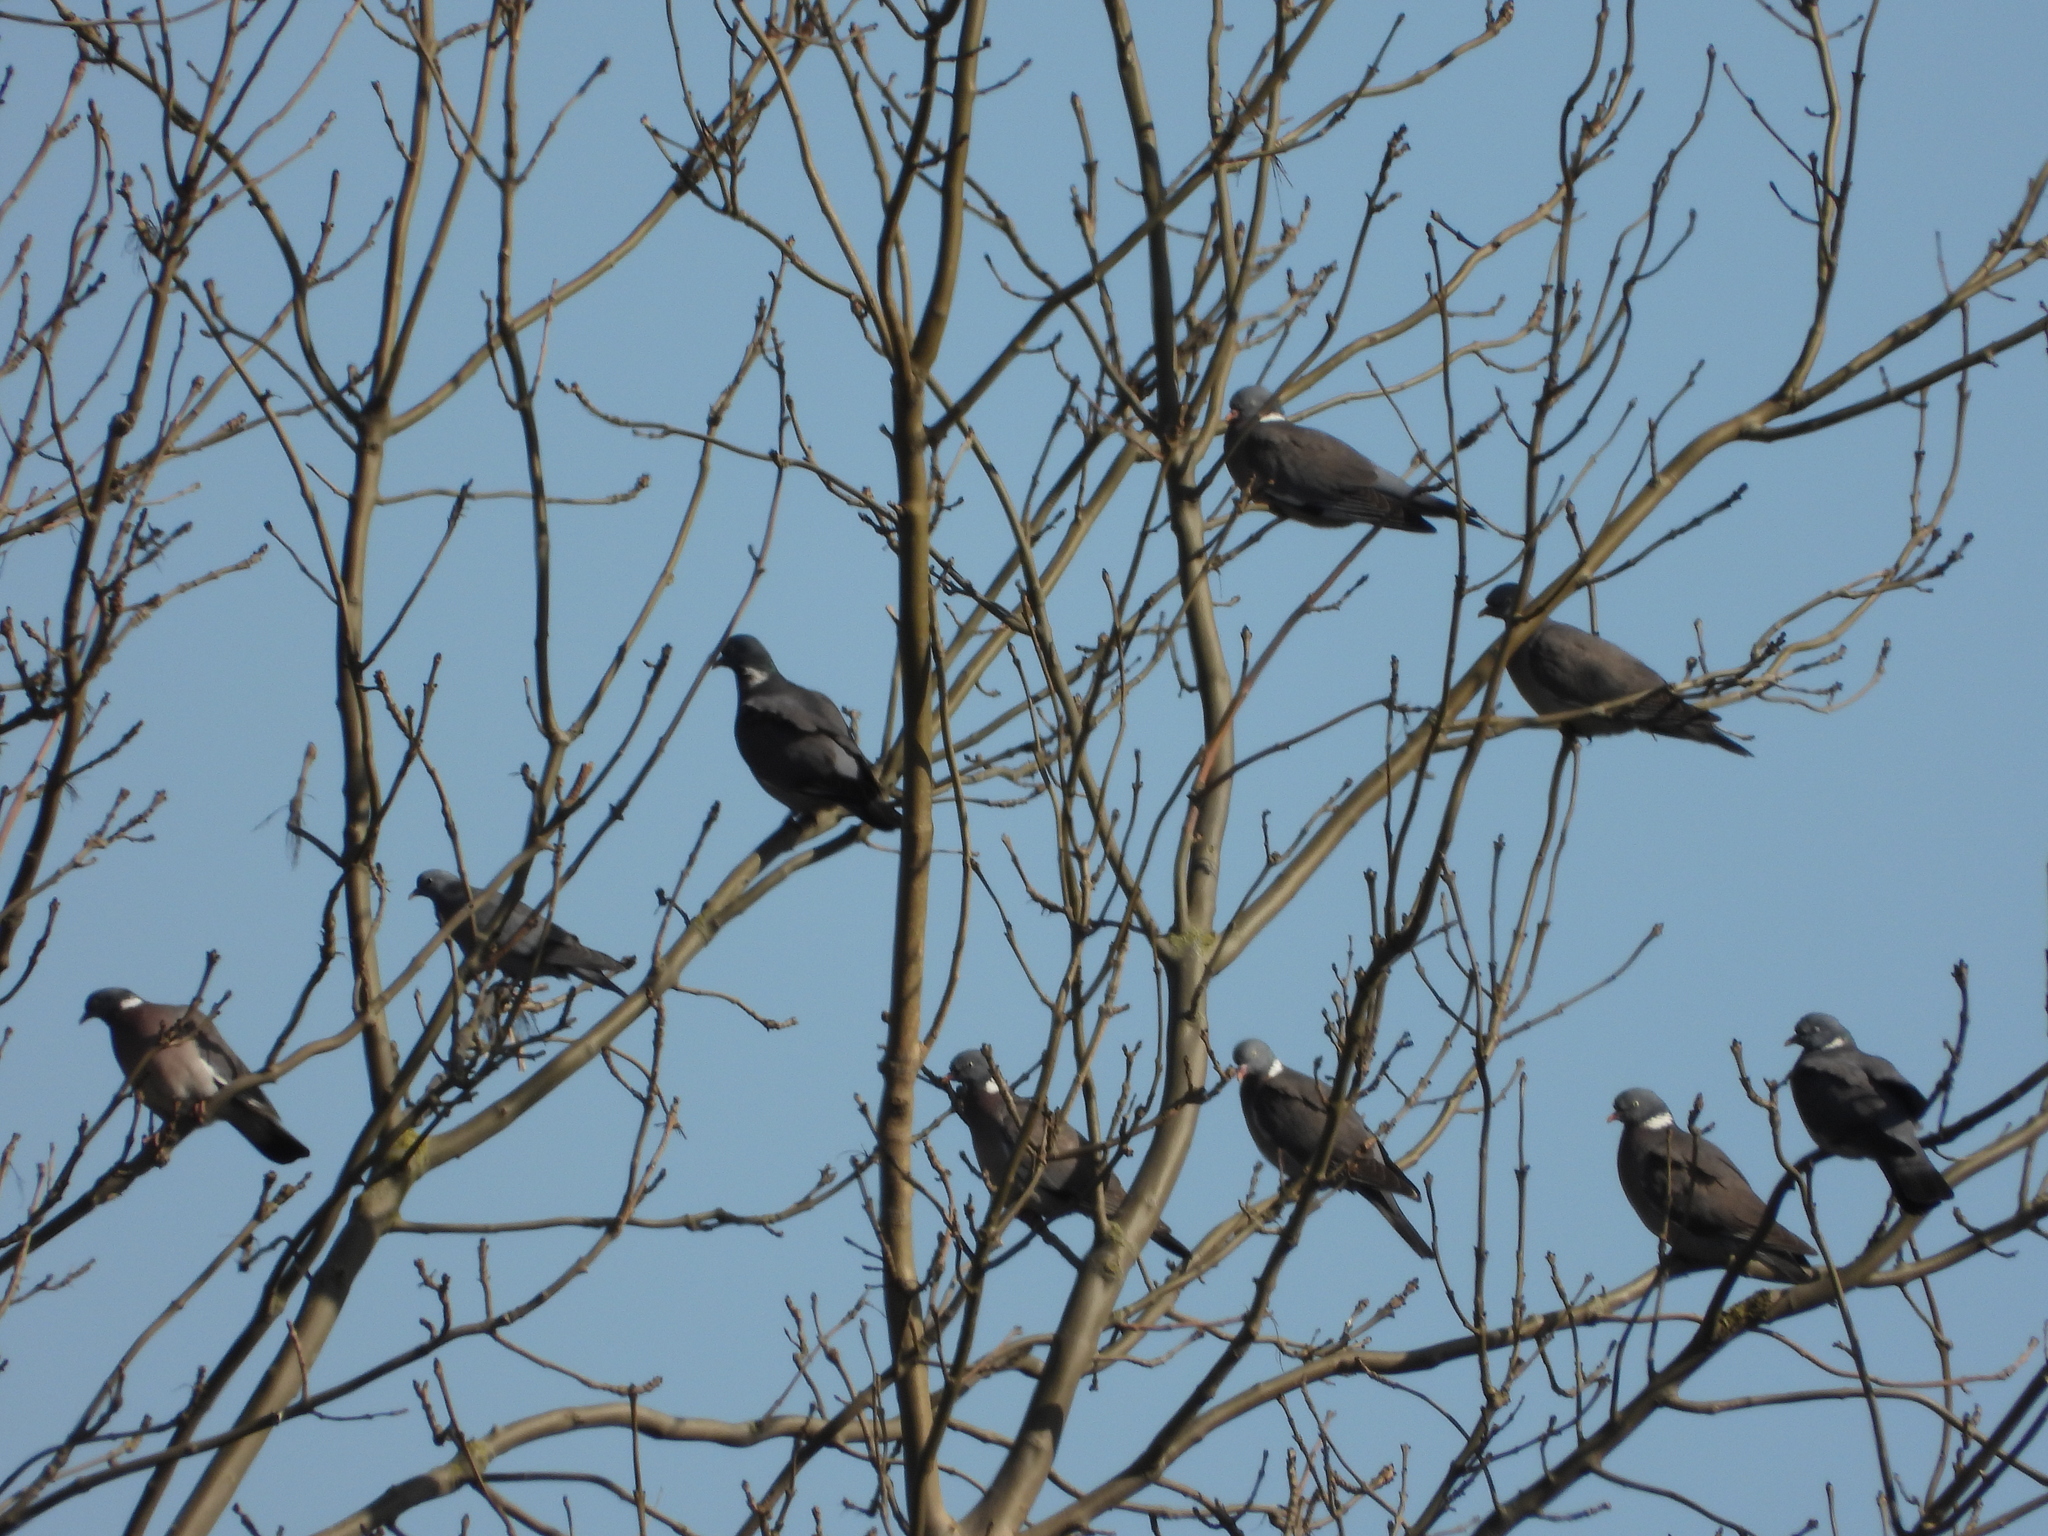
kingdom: Animalia
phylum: Chordata
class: Aves
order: Columbiformes
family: Columbidae
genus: Columba
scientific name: Columba palumbus
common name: Common wood pigeon
